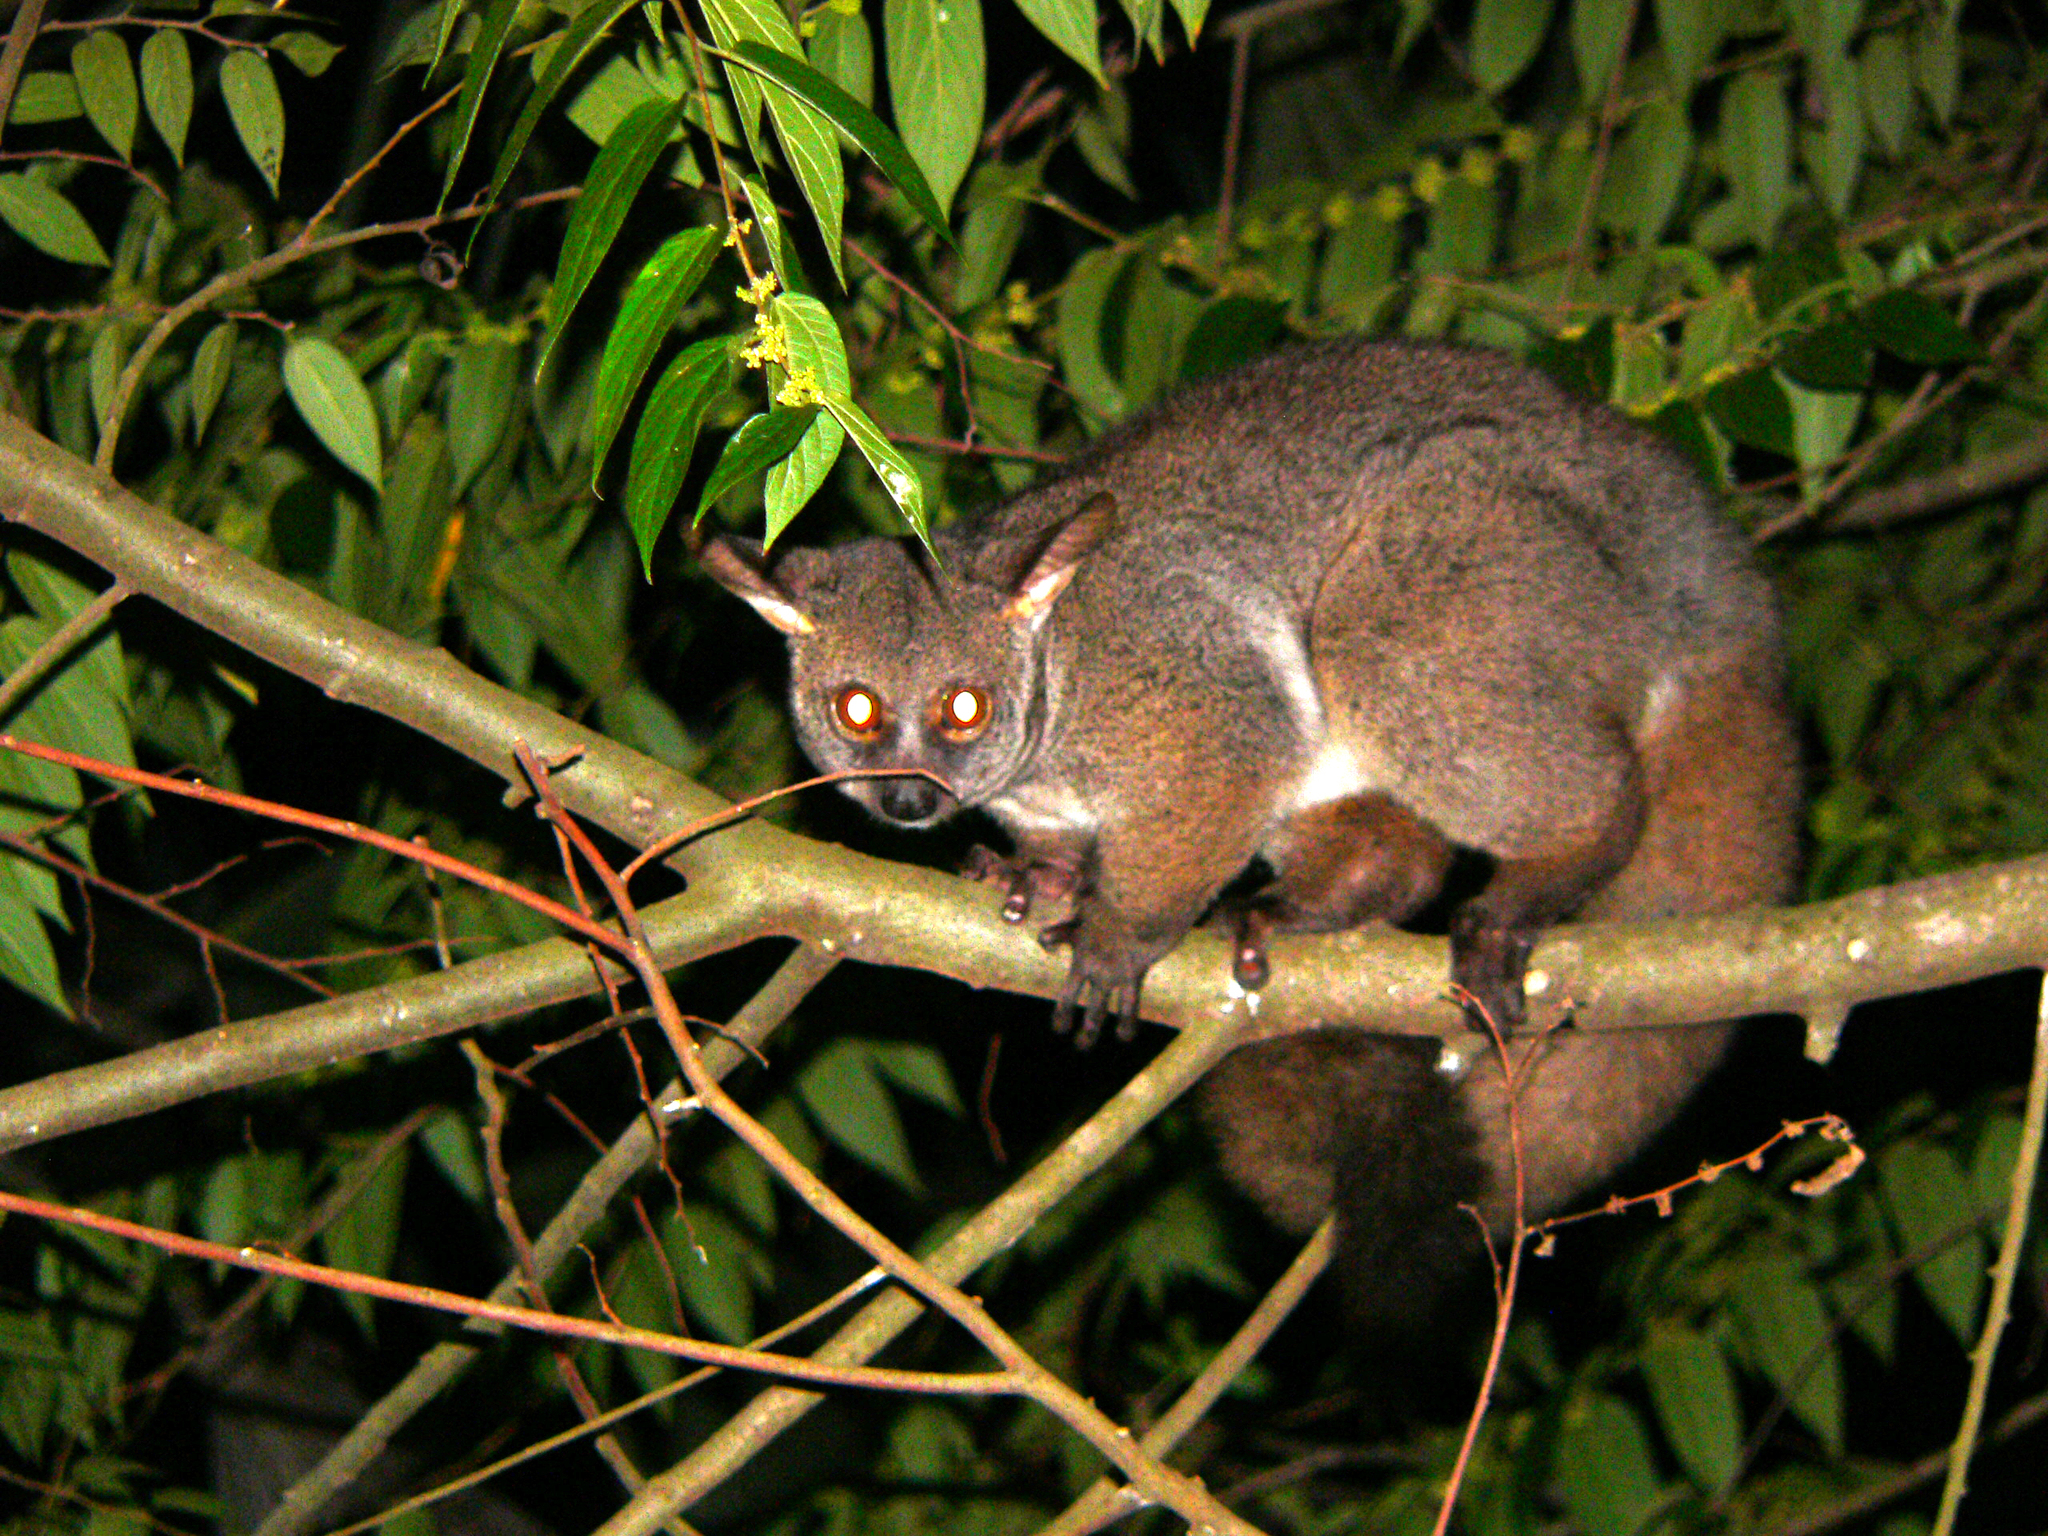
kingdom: Animalia
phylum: Chordata
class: Mammalia
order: Primates
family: Galagidae
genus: Otolemur
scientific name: Otolemur crassicaudatus
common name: Brown greater galago
